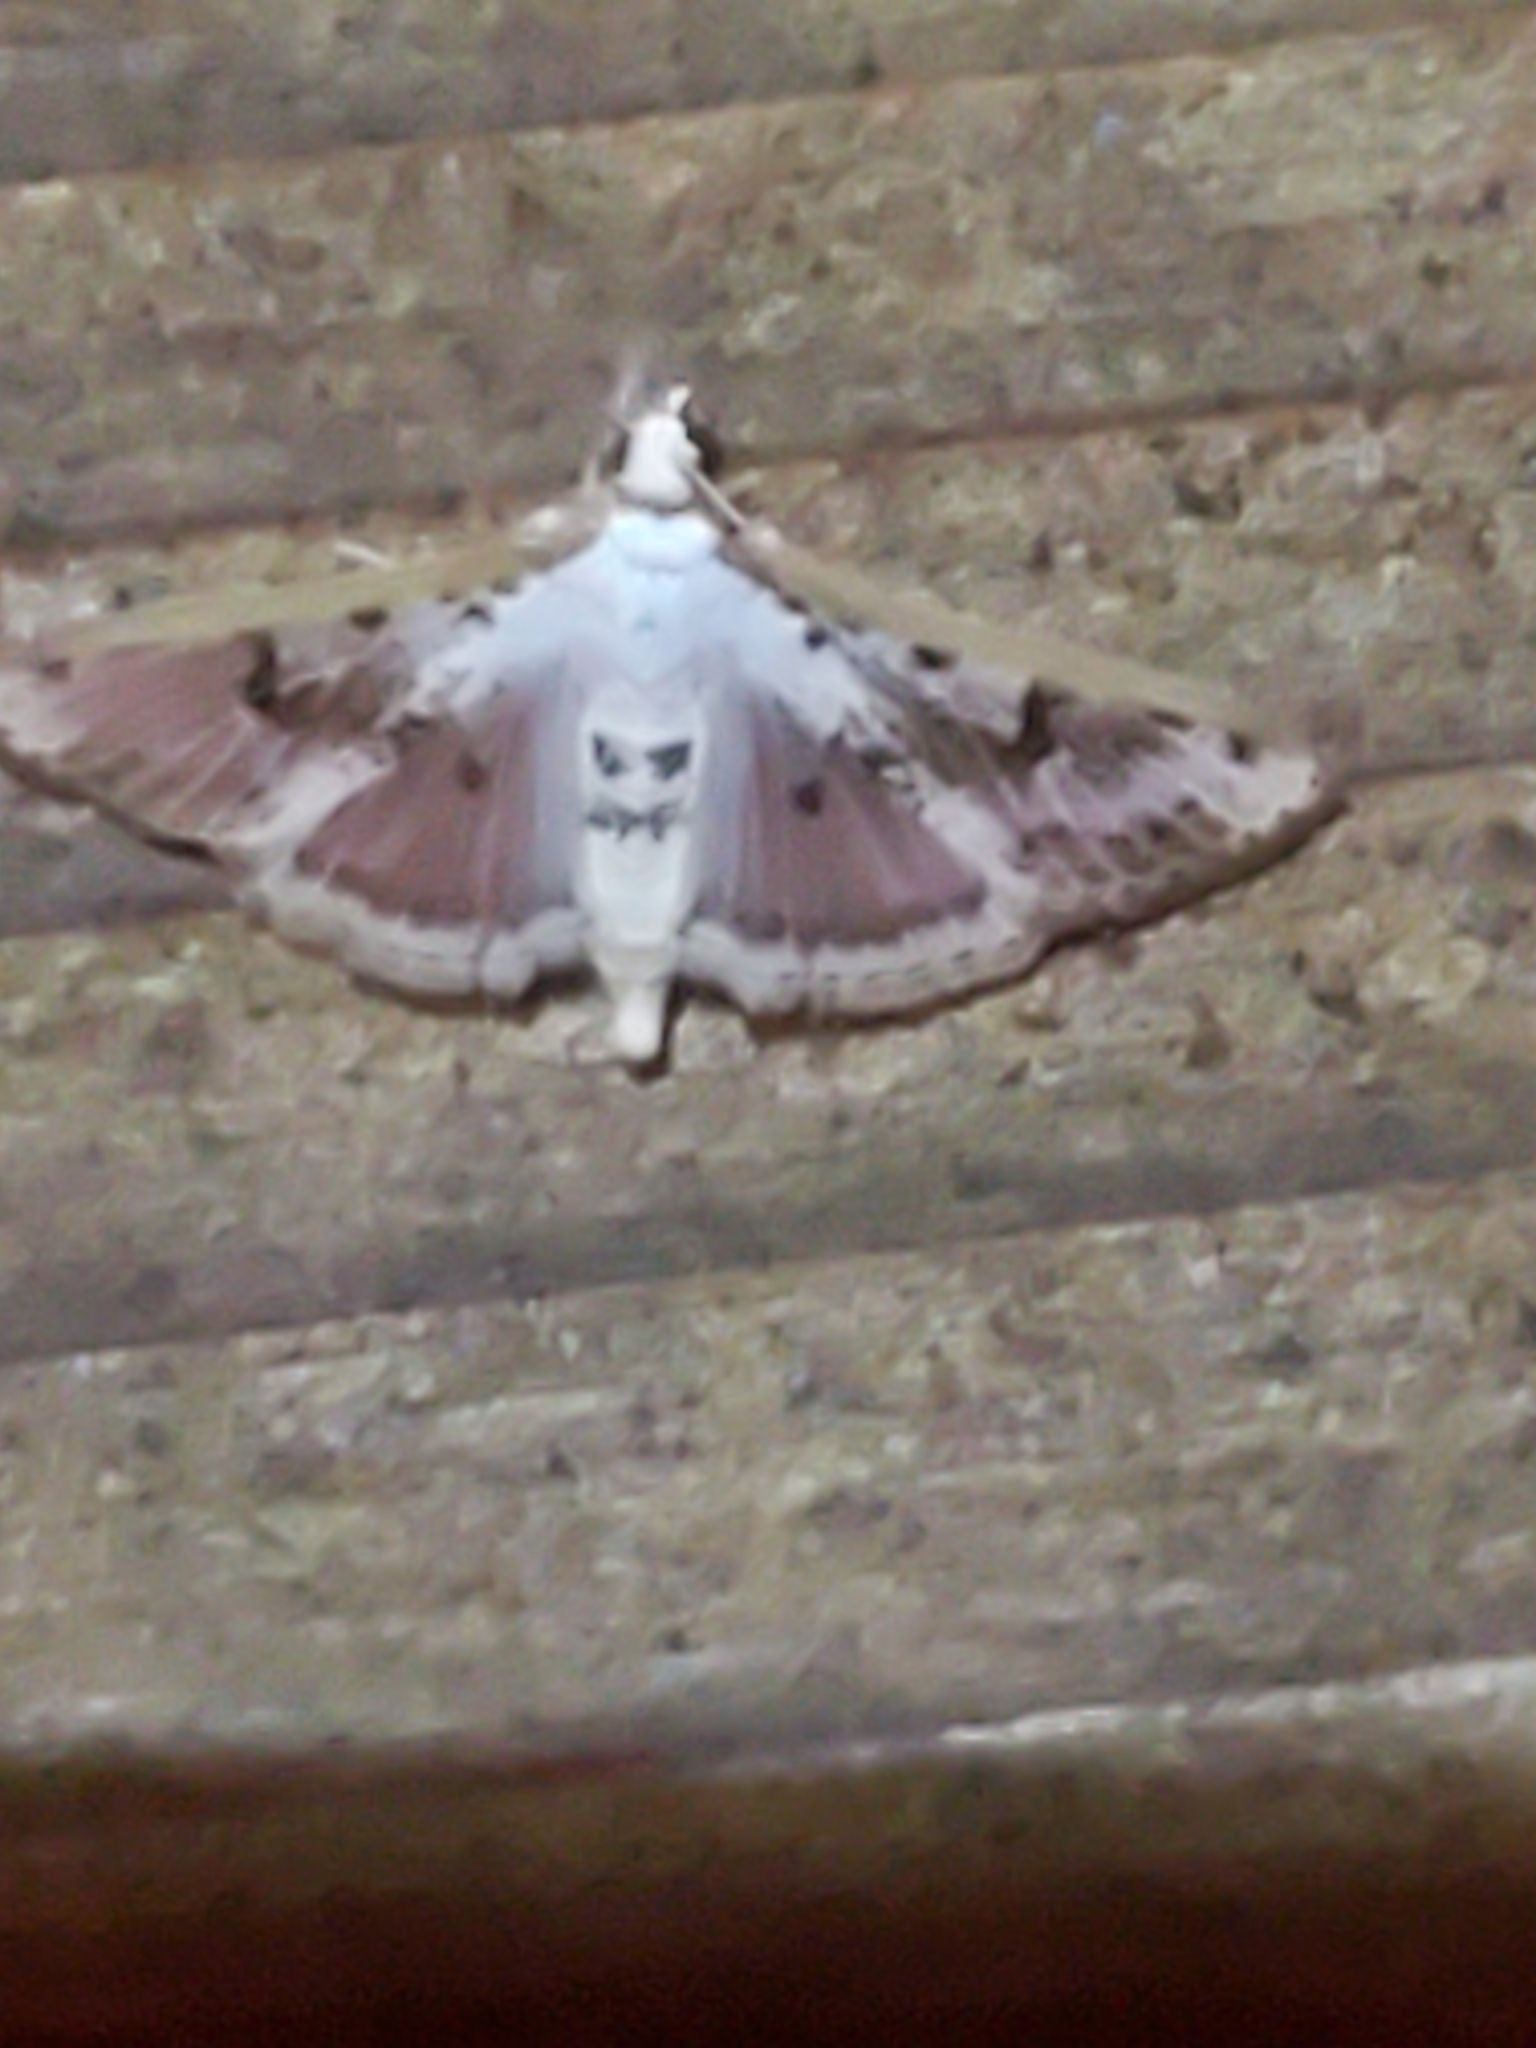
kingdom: Animalia
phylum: Arthropoda
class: Insecta
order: Lepidoptera
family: Crambidae
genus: Palpita
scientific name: Palpita gracilalis
